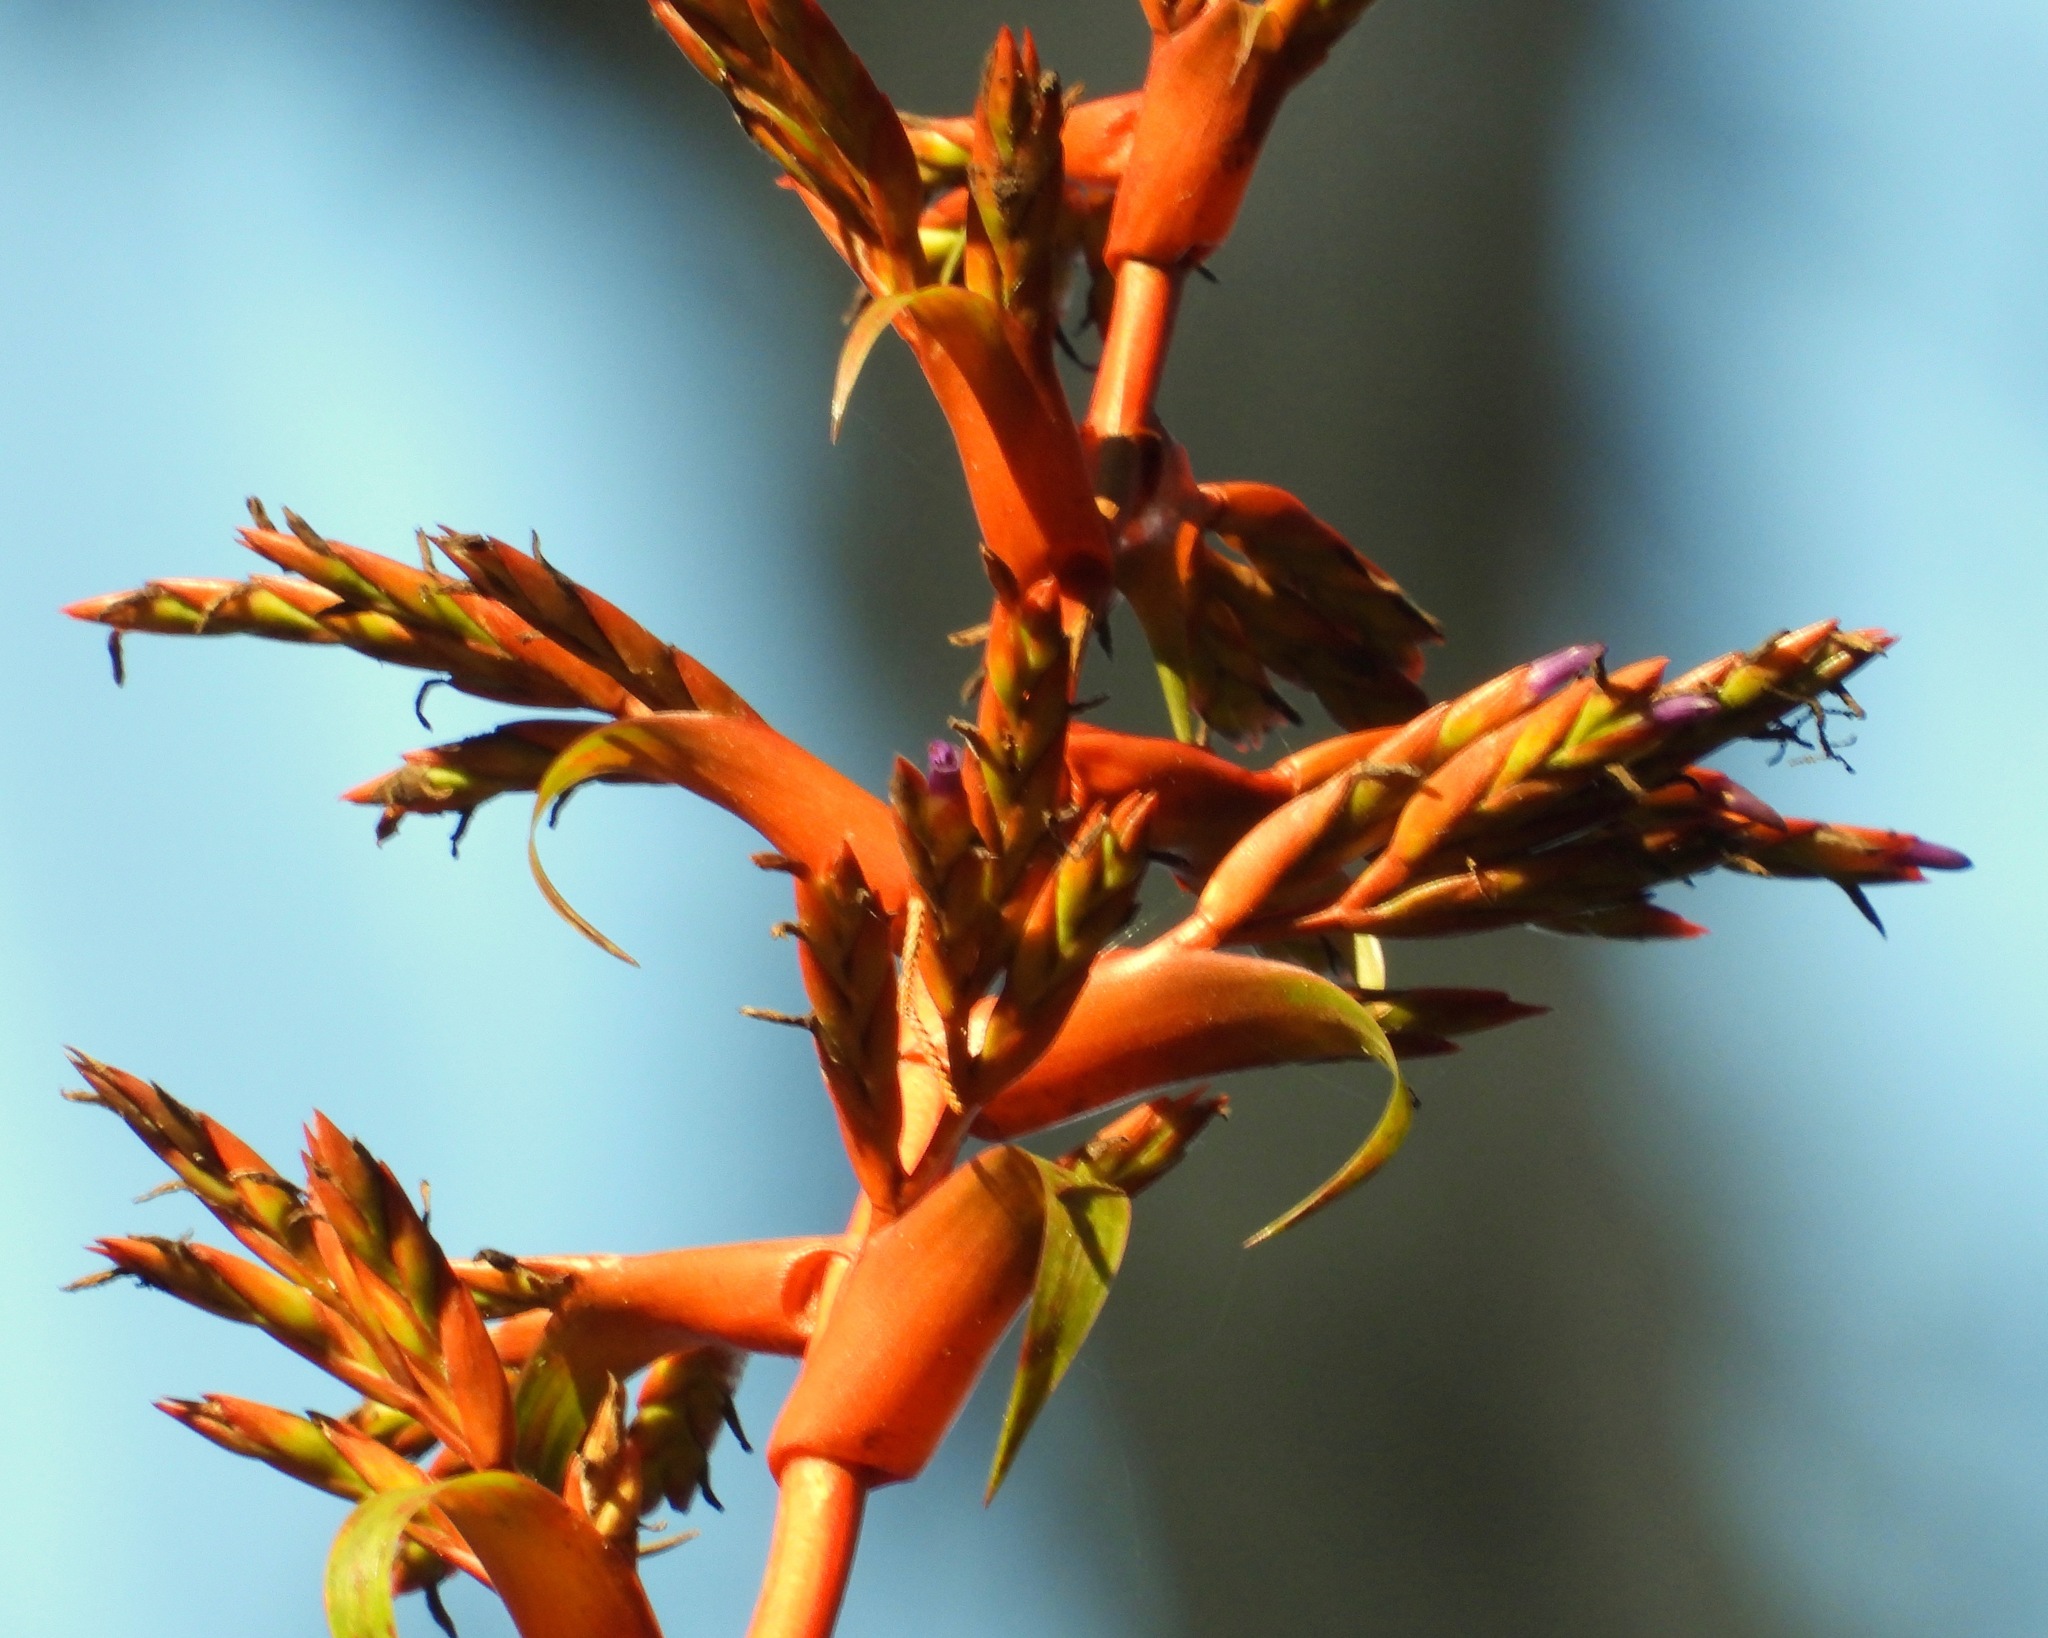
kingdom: Plantae
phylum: Tracheophyta
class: Liliopsida
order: Poales
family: Bromeliaceae
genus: Tillandsia
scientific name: Tillandsia guatemalensis
